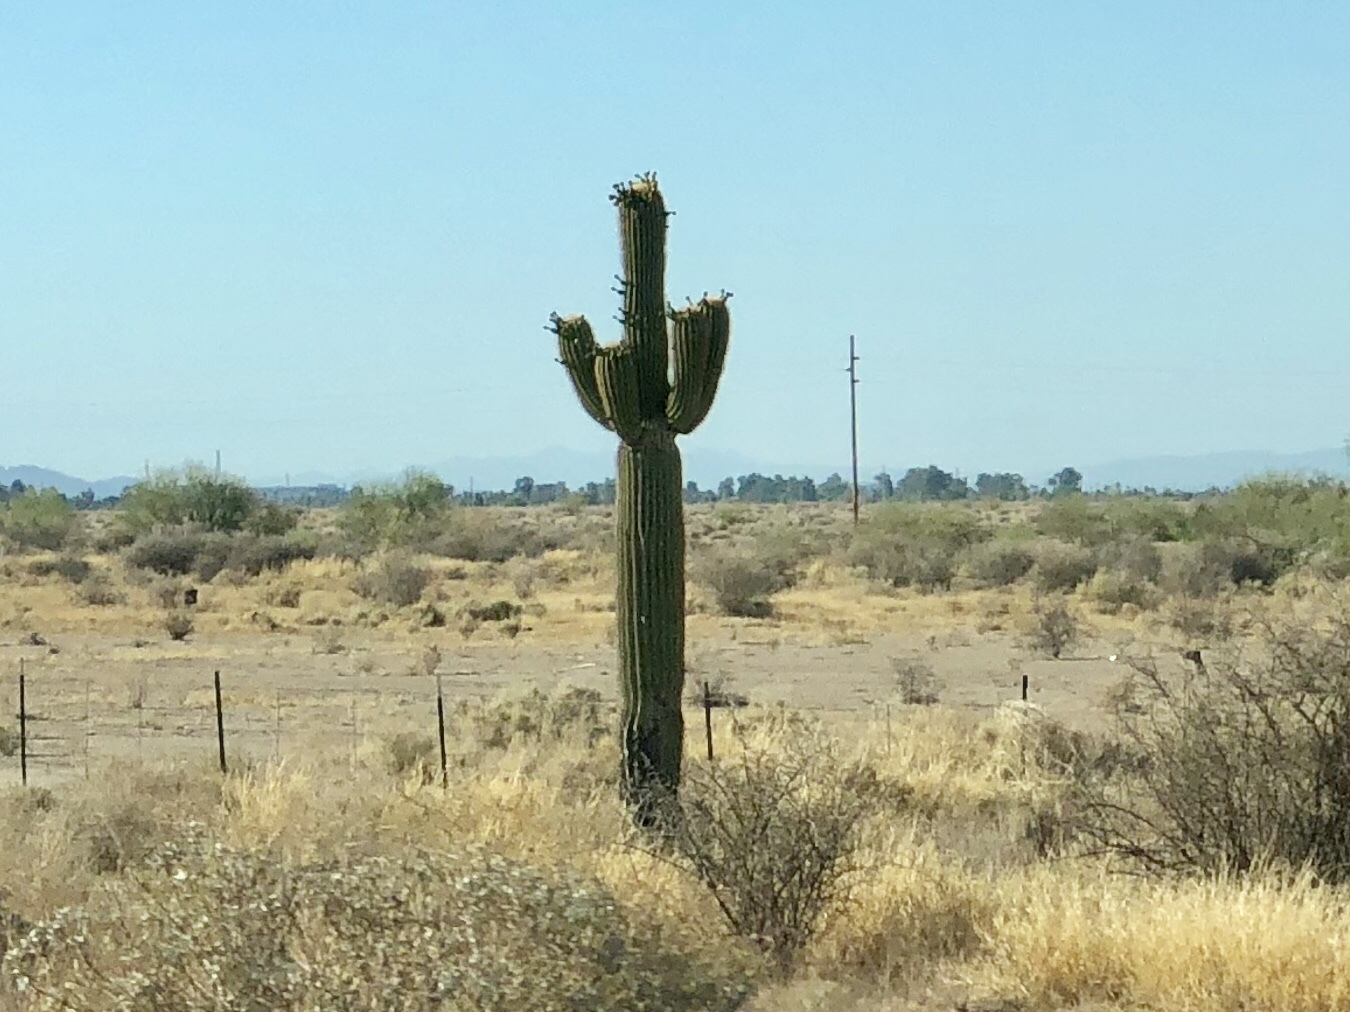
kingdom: Plantae
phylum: Tracheophyta
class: Magnoliopsida
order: Caryophyllales
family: Cactaceae
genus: Carnegiea
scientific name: Carnegiea gigantea
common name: Saguaro
